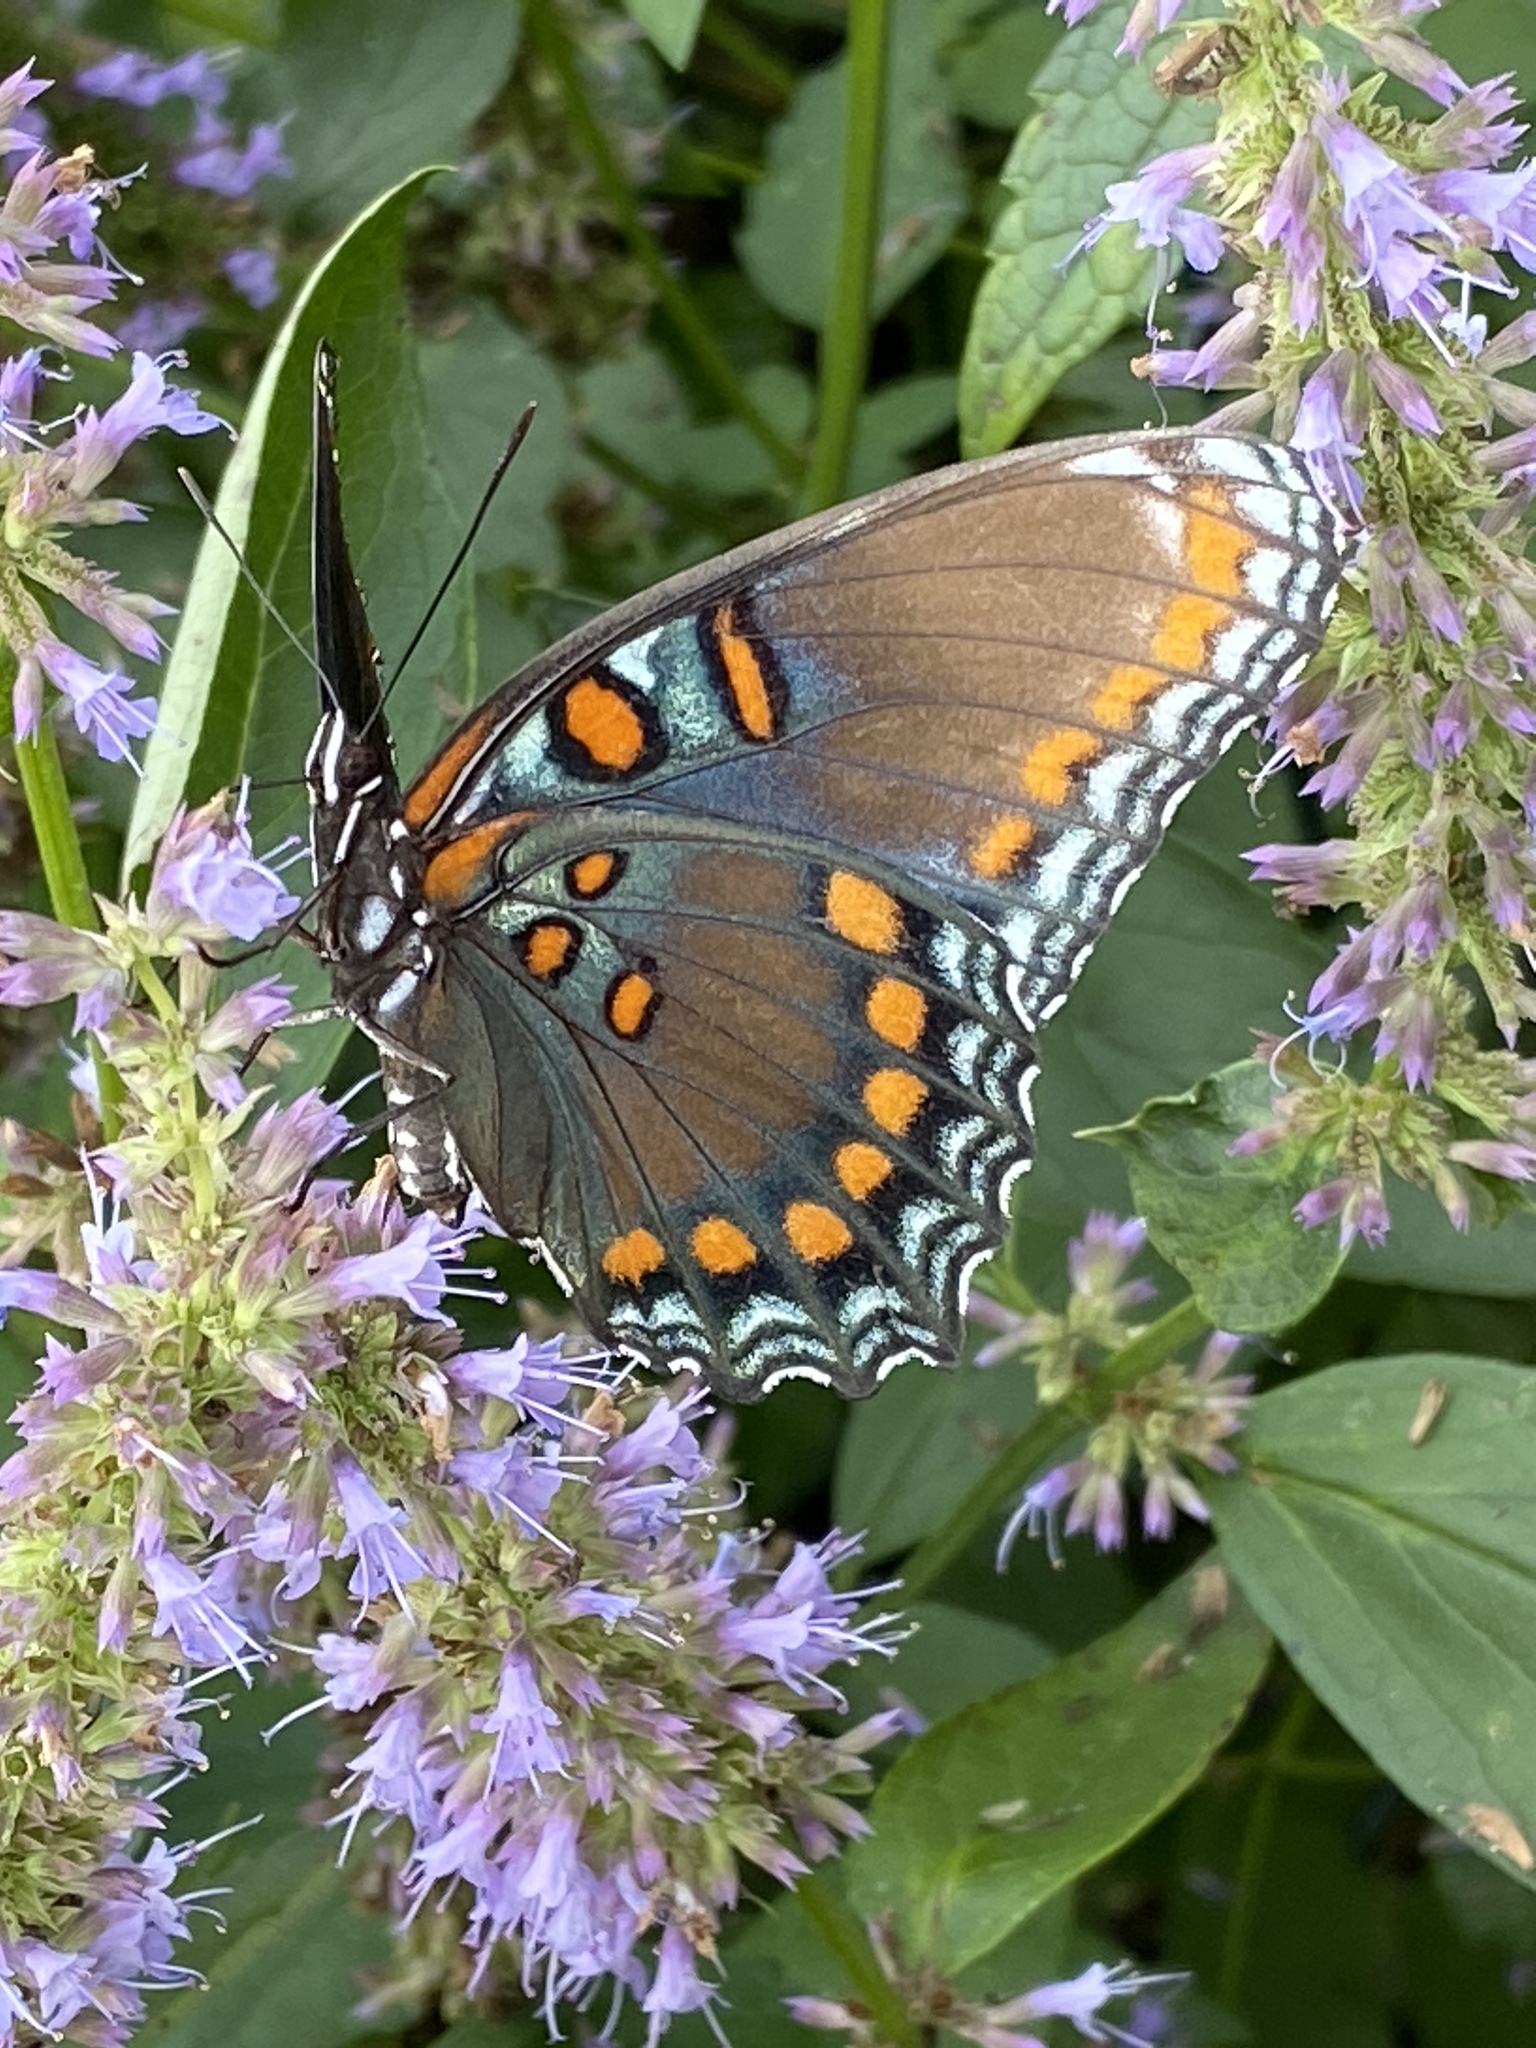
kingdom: Animalia
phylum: Arthropoda
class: Insecta
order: Lepidoptera
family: Nymphalidae
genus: Limenitis
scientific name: Limenitis astyanax
